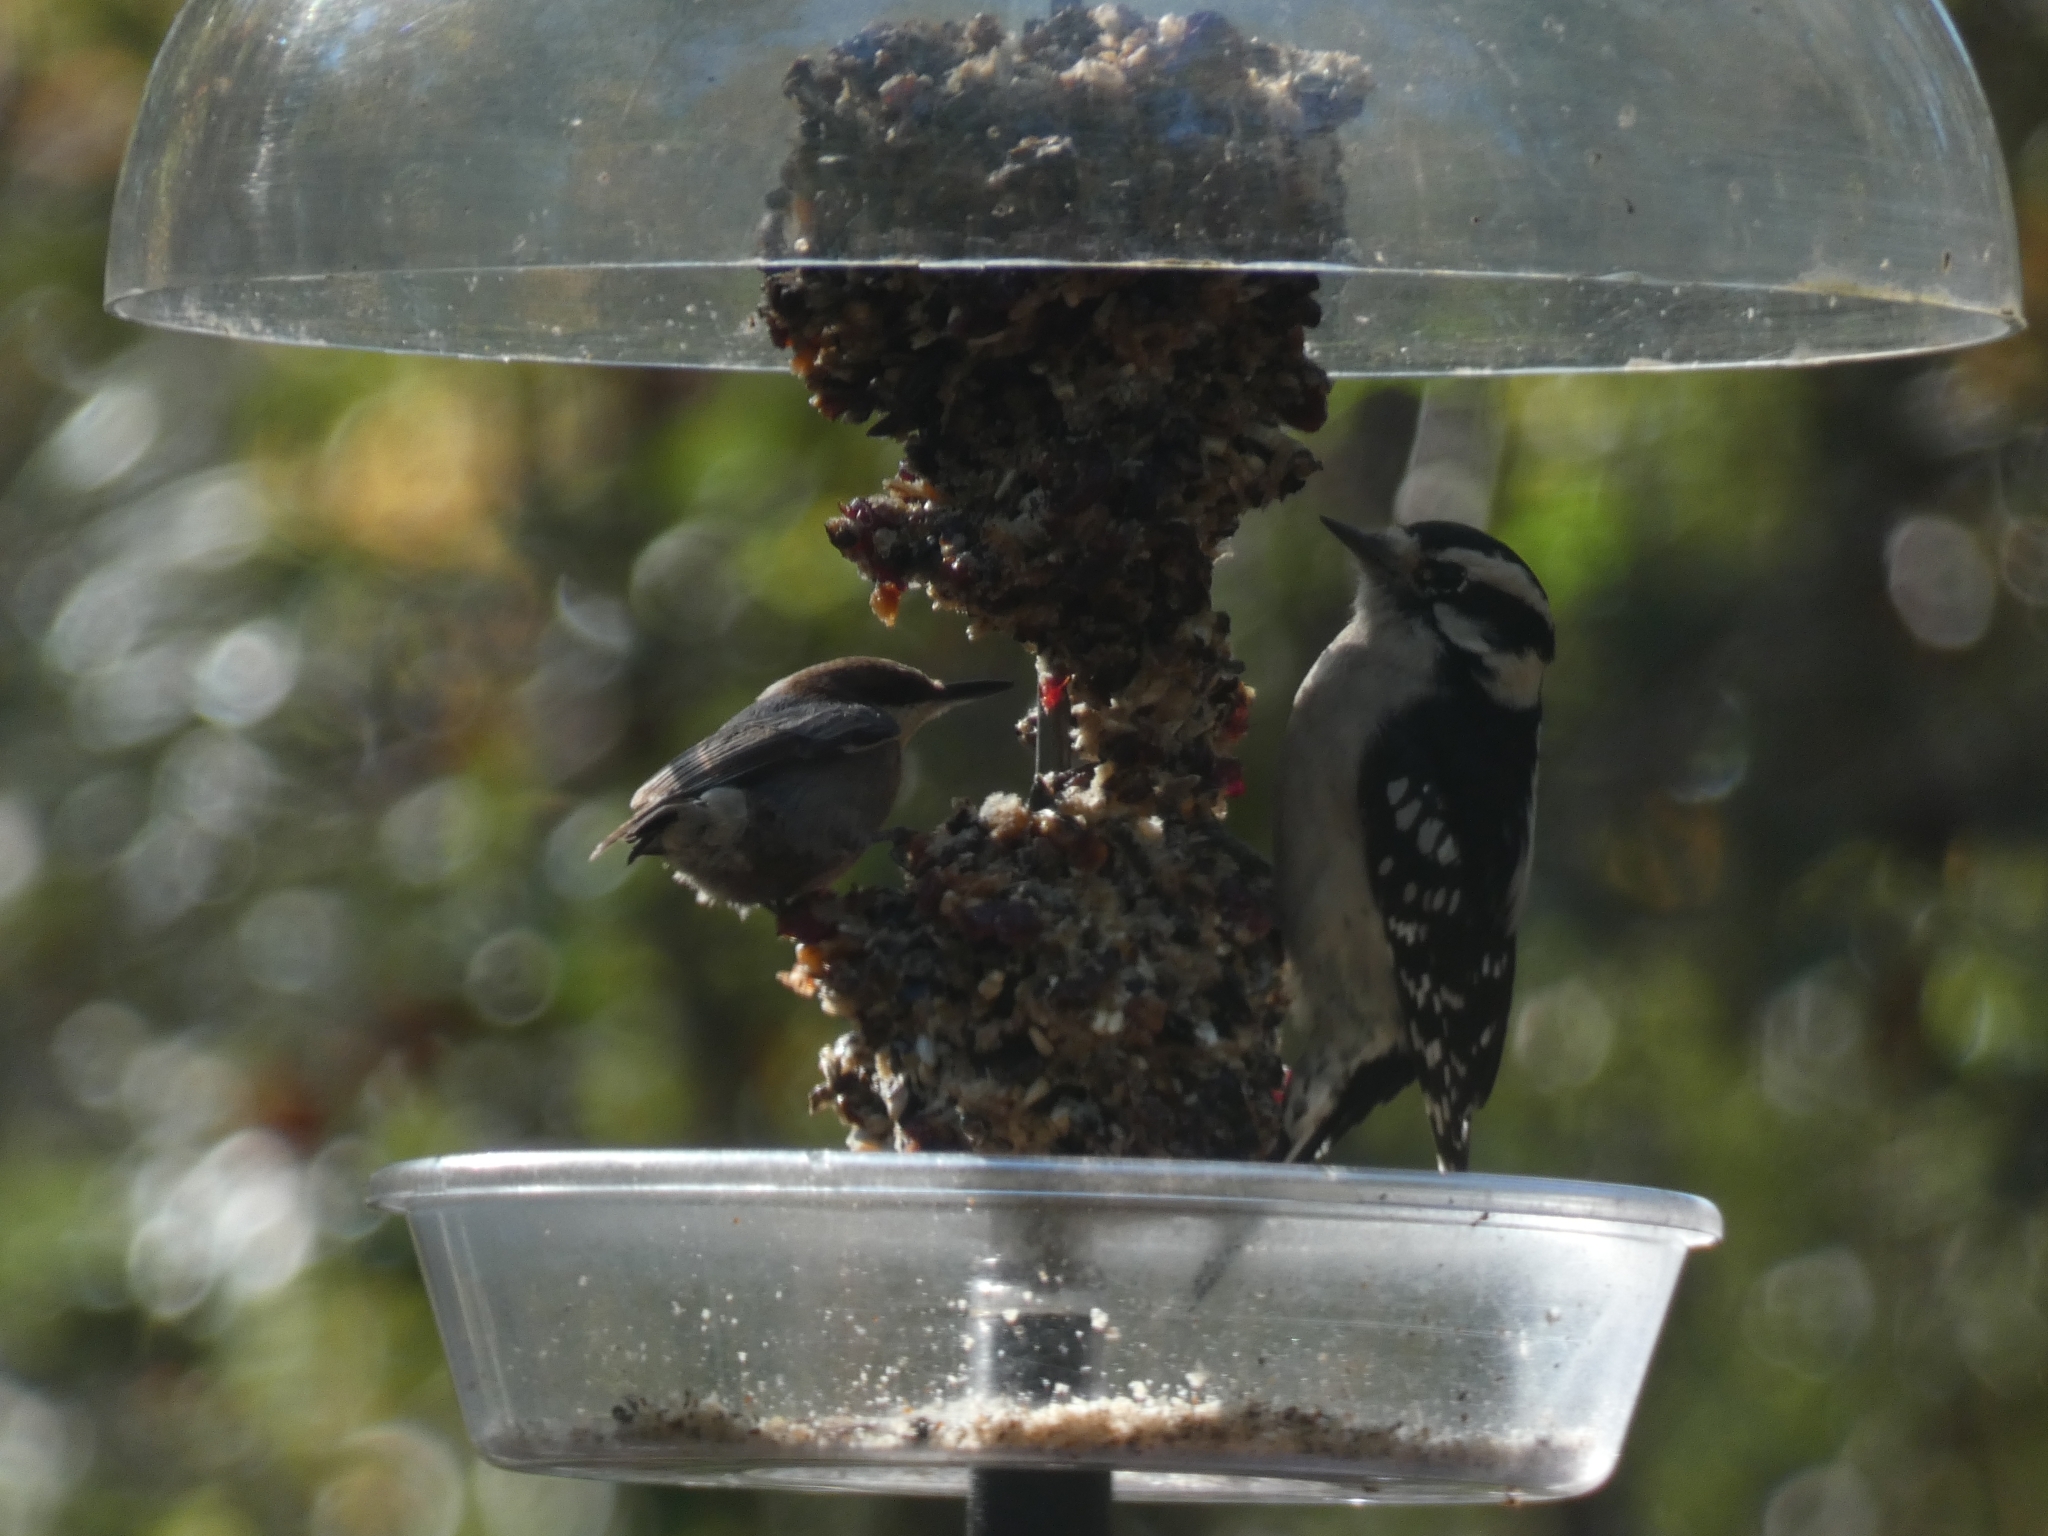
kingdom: Animalia
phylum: Chordata
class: Aves
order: Piciformes
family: Picidae
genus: Dryobates
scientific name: Dryobates pubescens
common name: Downy woodpecker
